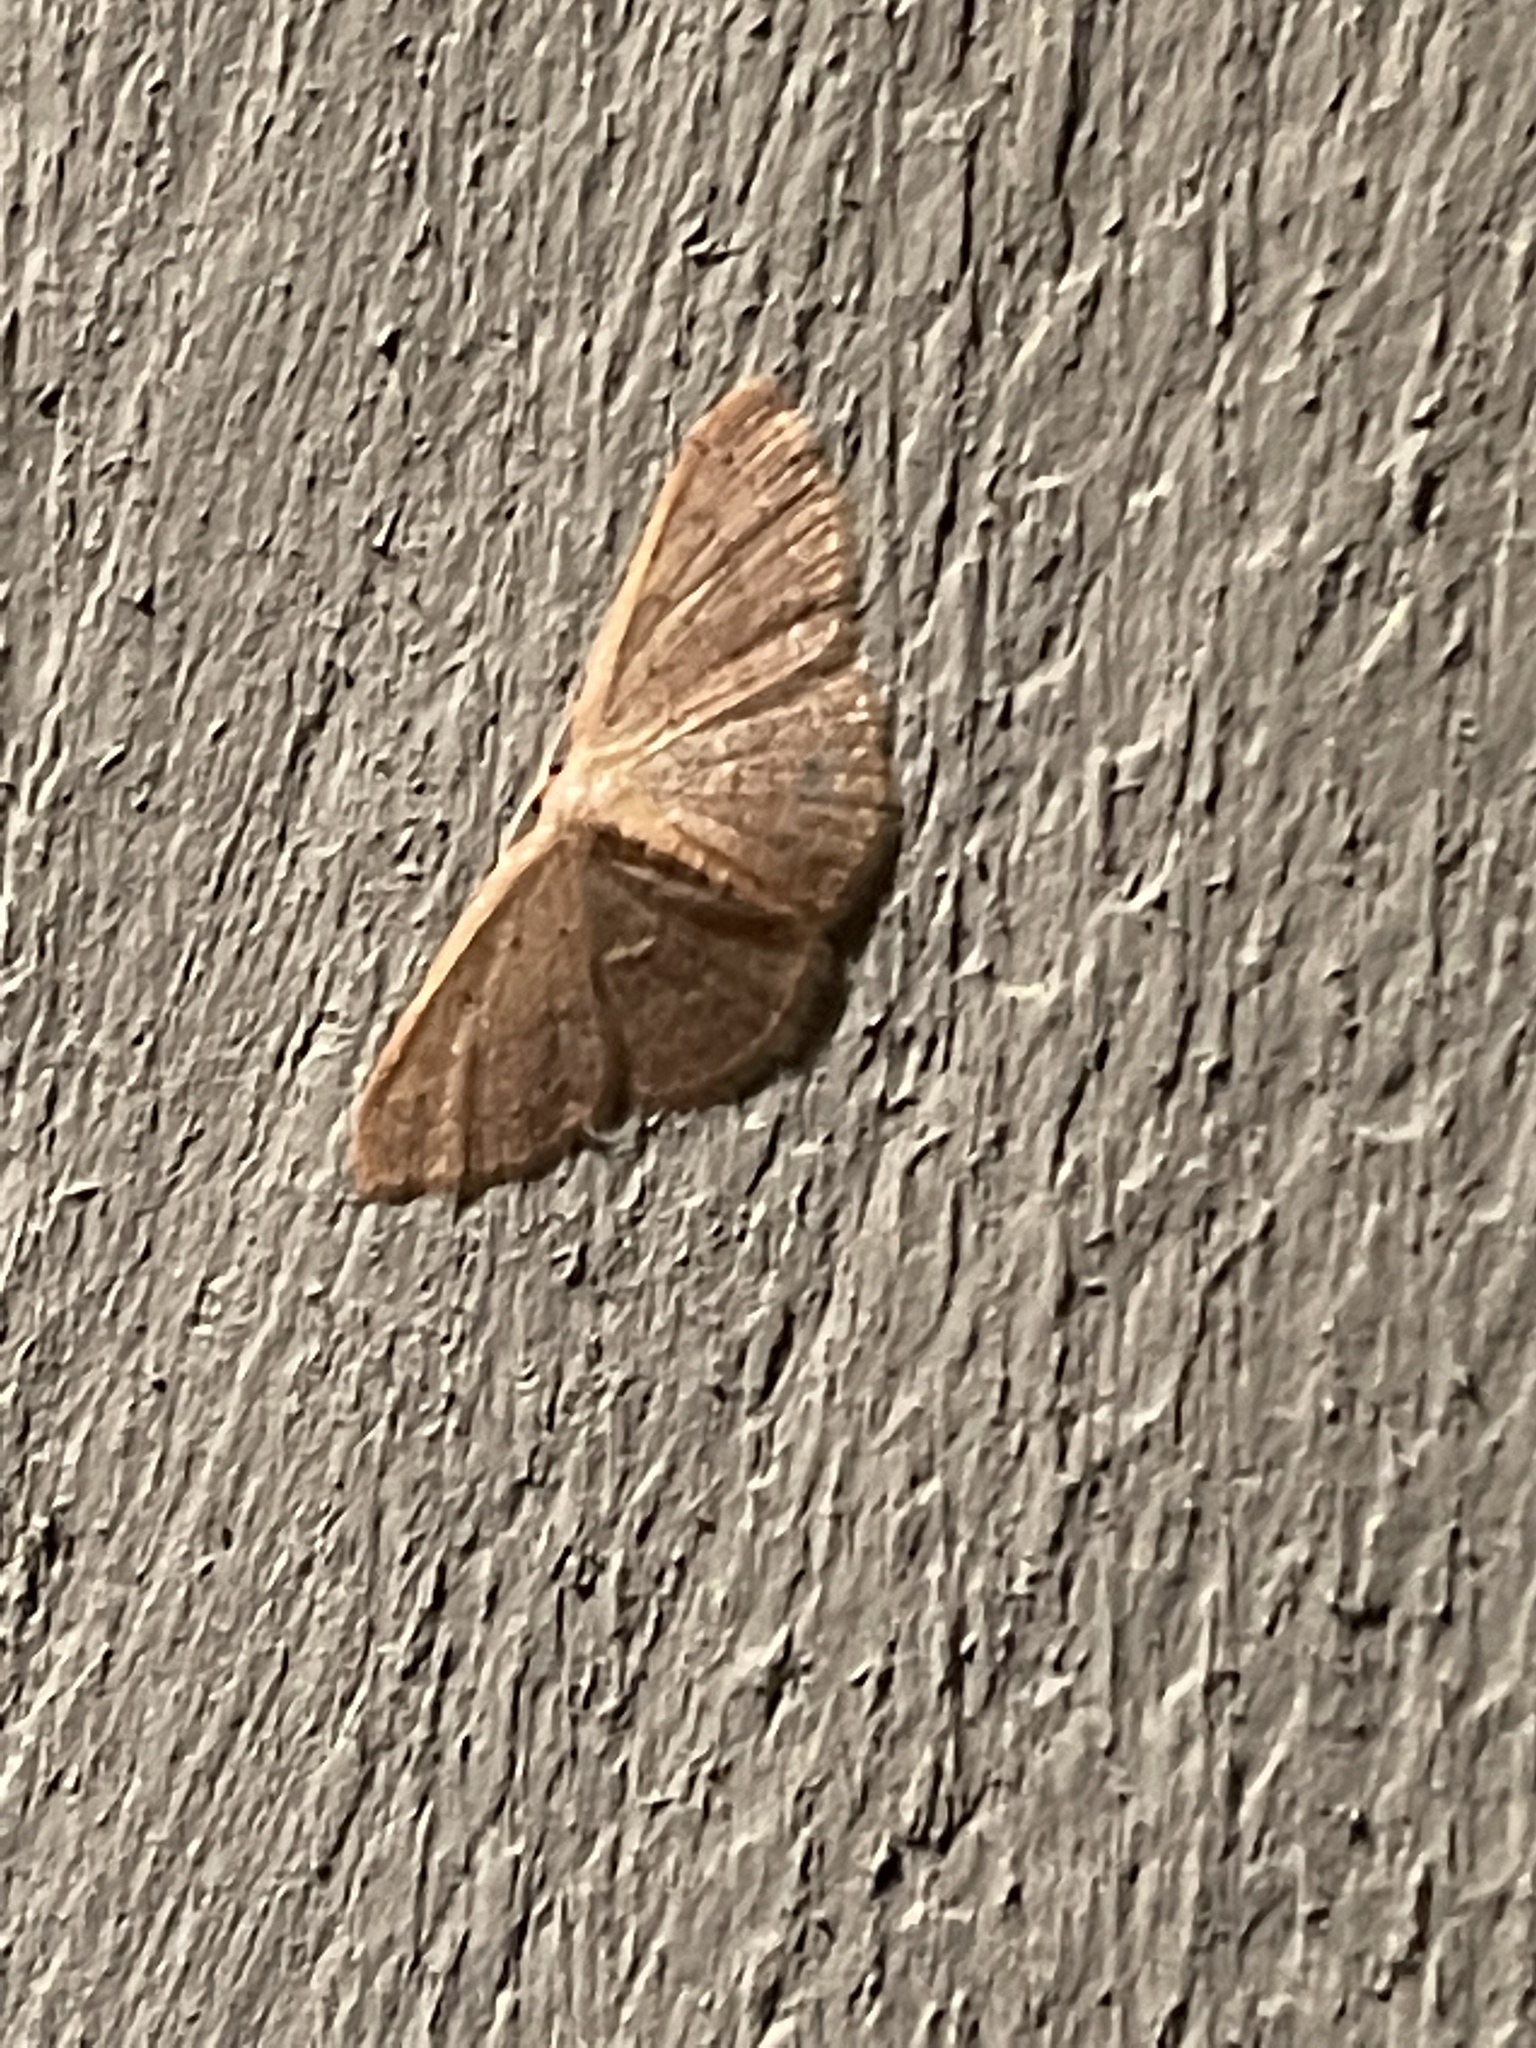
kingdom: Animalia
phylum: Arthropoda
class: Insecta
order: Lepidoptera
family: Geometridae
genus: Pleuroprucha
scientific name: Pleuroprucha insulsaria
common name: Common tan wave
